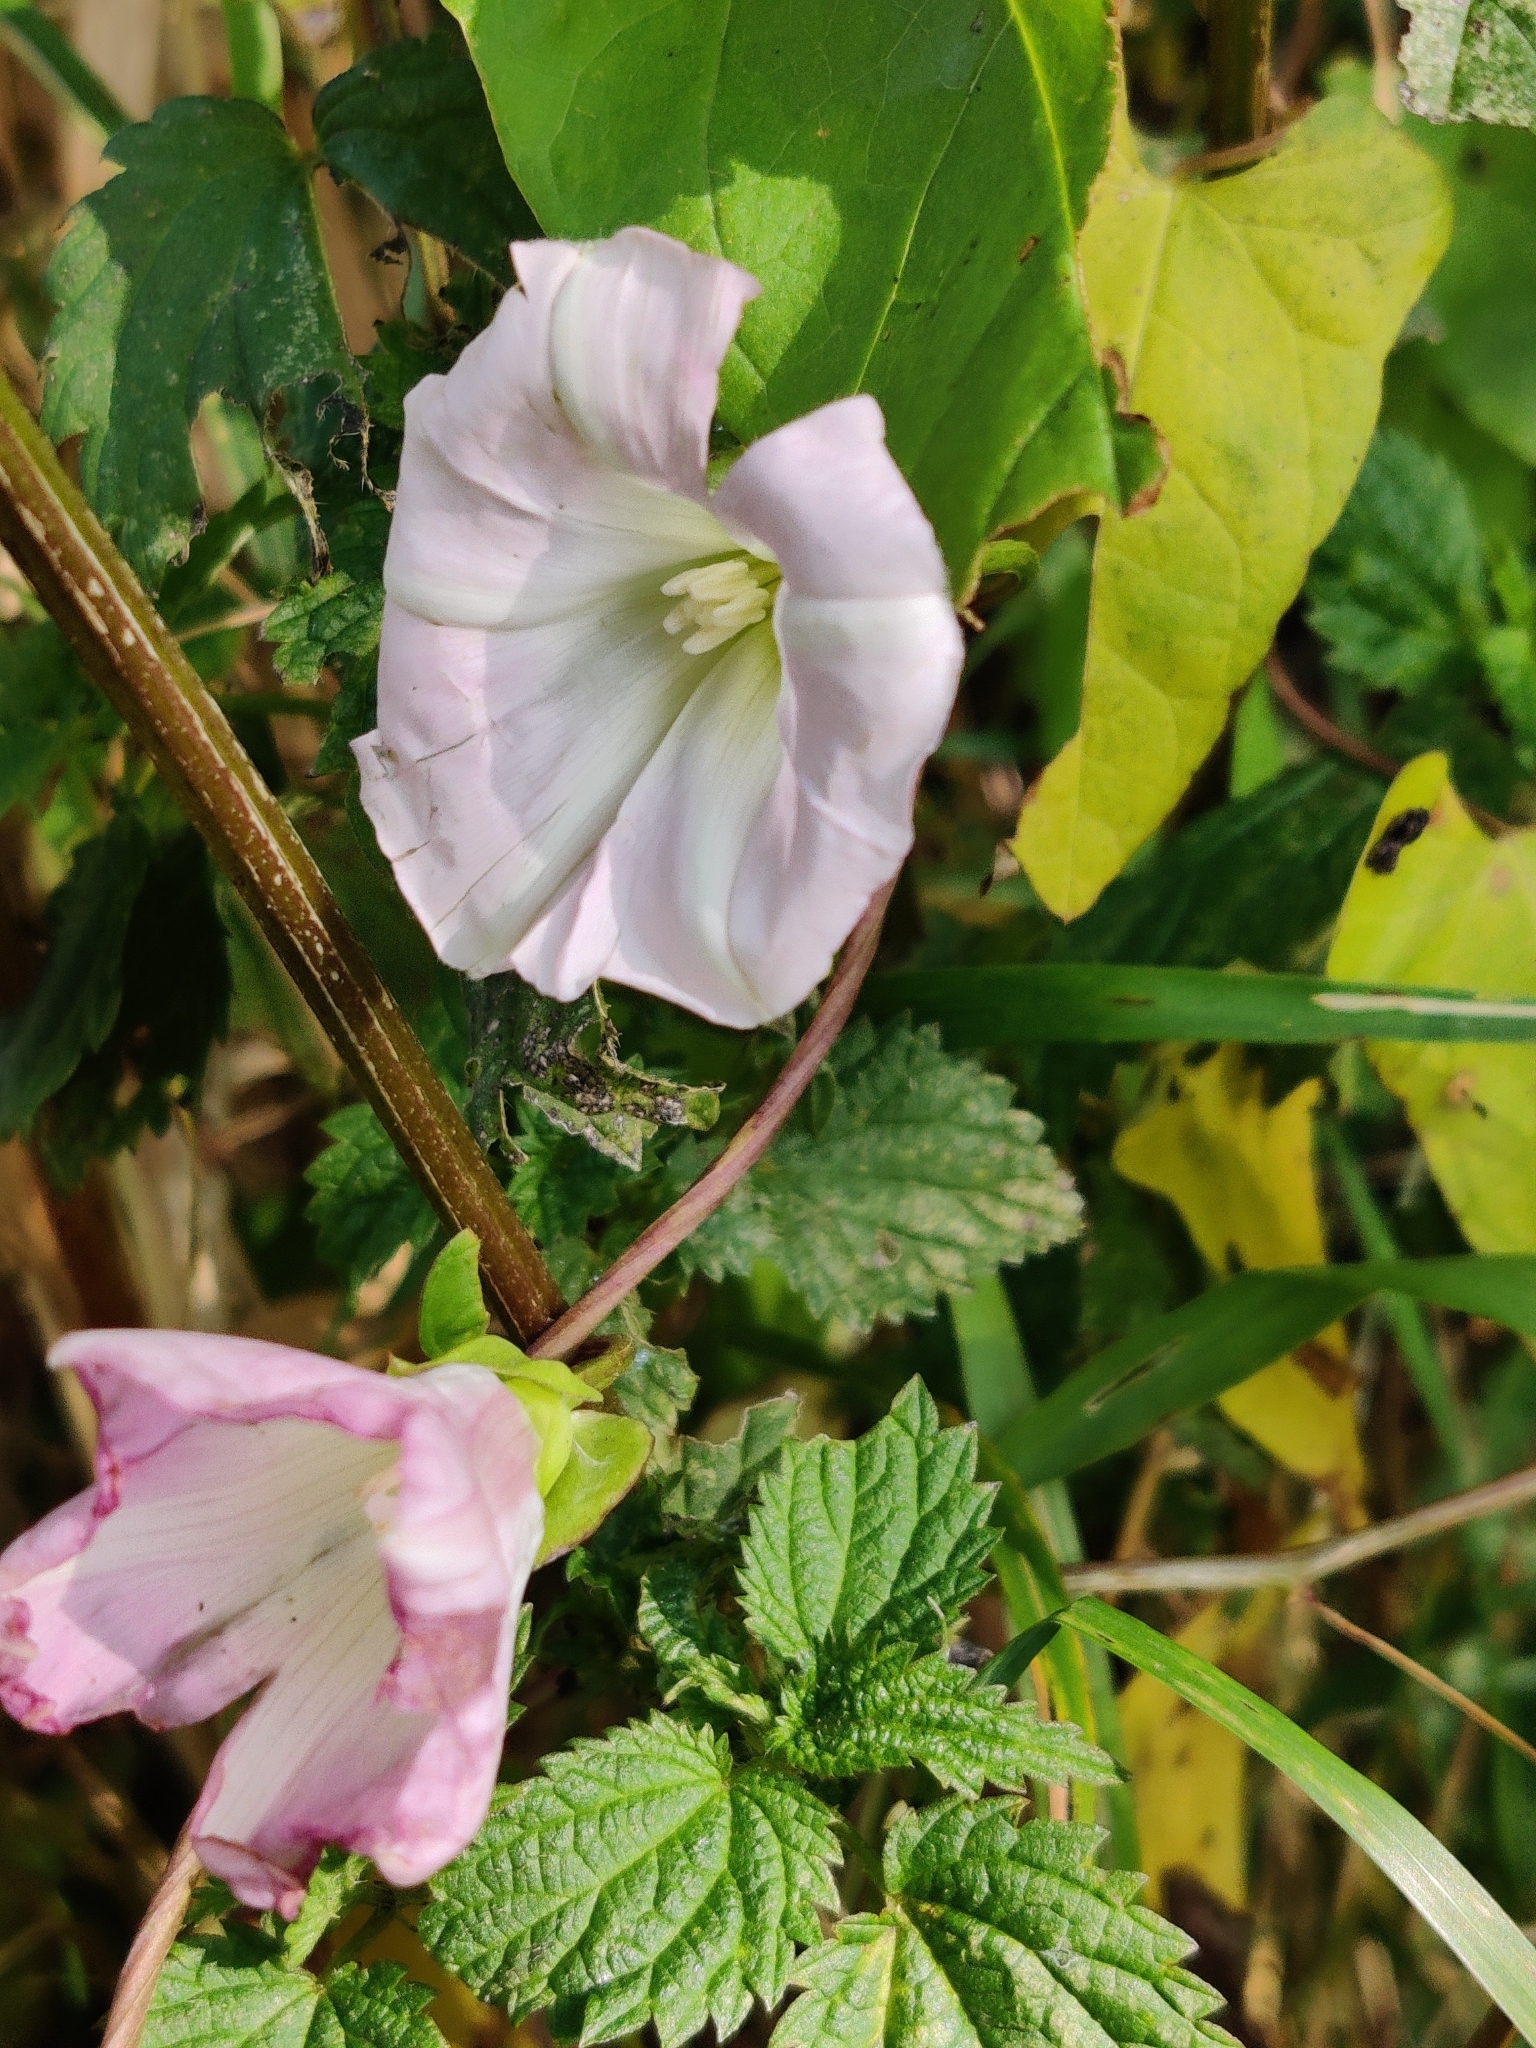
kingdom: Plantae
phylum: Tracheophyta
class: Magnoliopsida
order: Solanales
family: Convolvulaceae
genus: Calystegia
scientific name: Calystegia sepium
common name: Hedge bindweed
